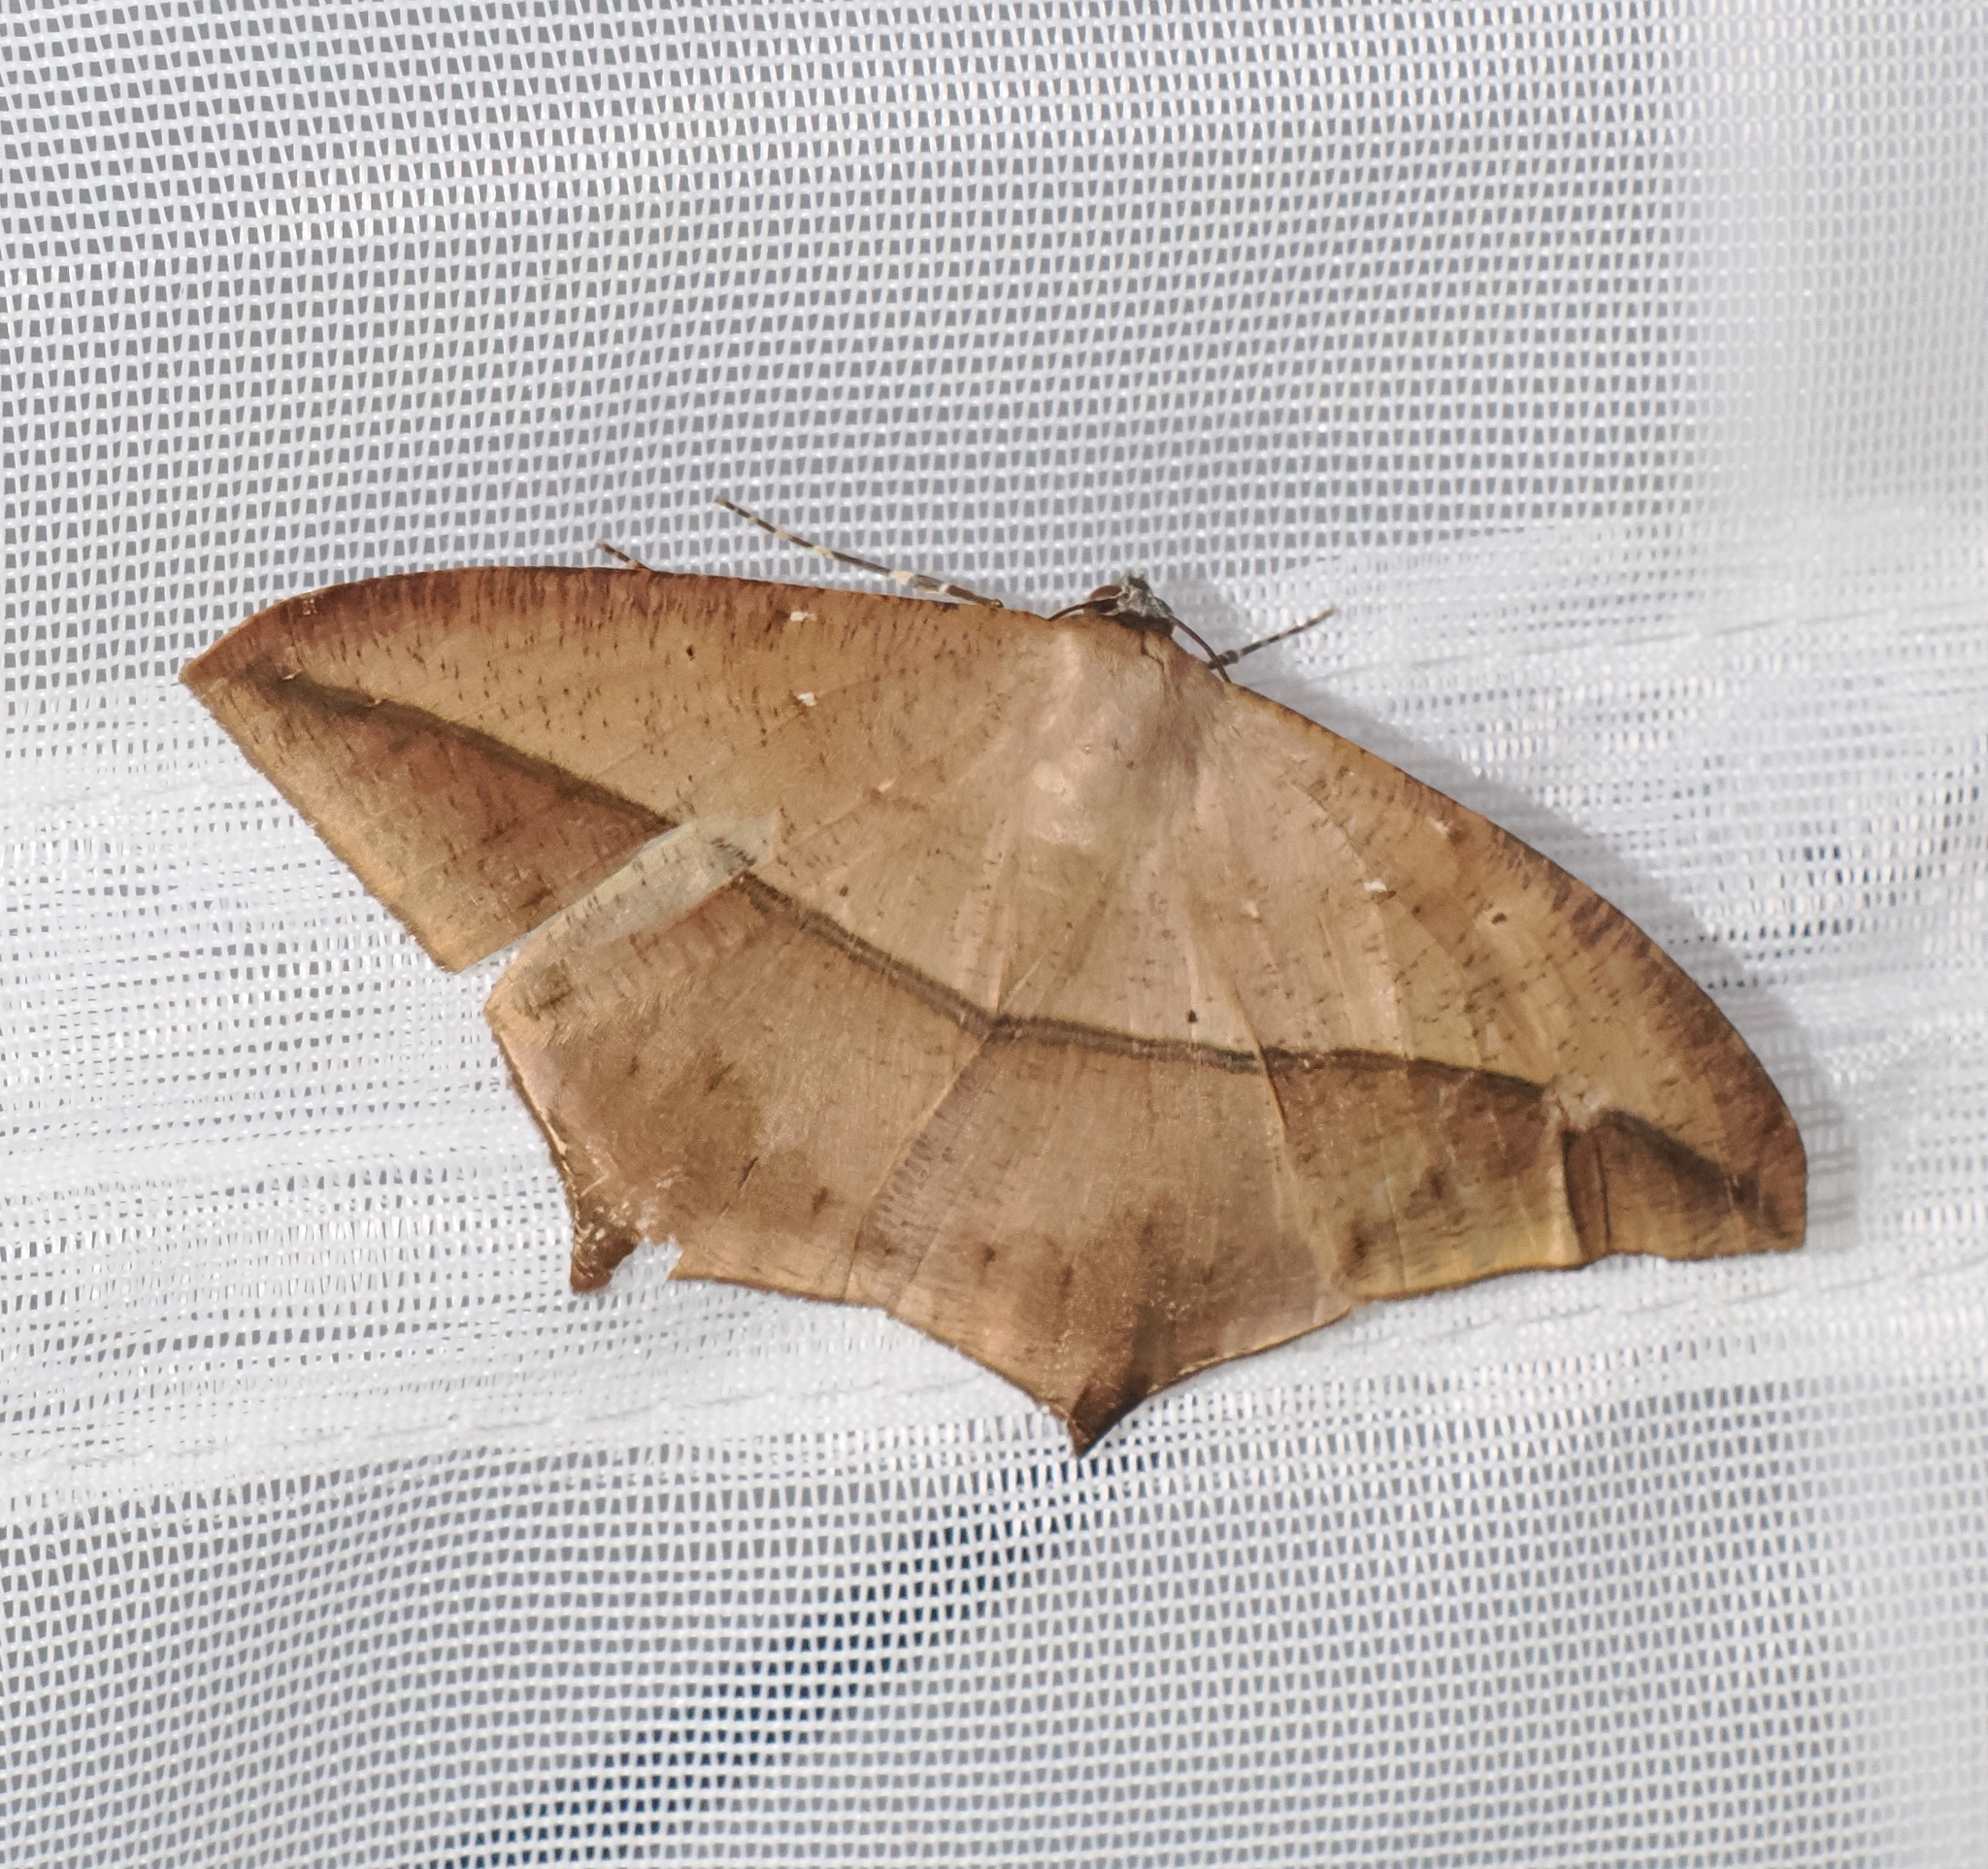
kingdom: Animalia
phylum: Arthropoda
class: Insecta
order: Lepidoptera
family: Geometridae
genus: Prochoerodes
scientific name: Prochoerodes marciana
